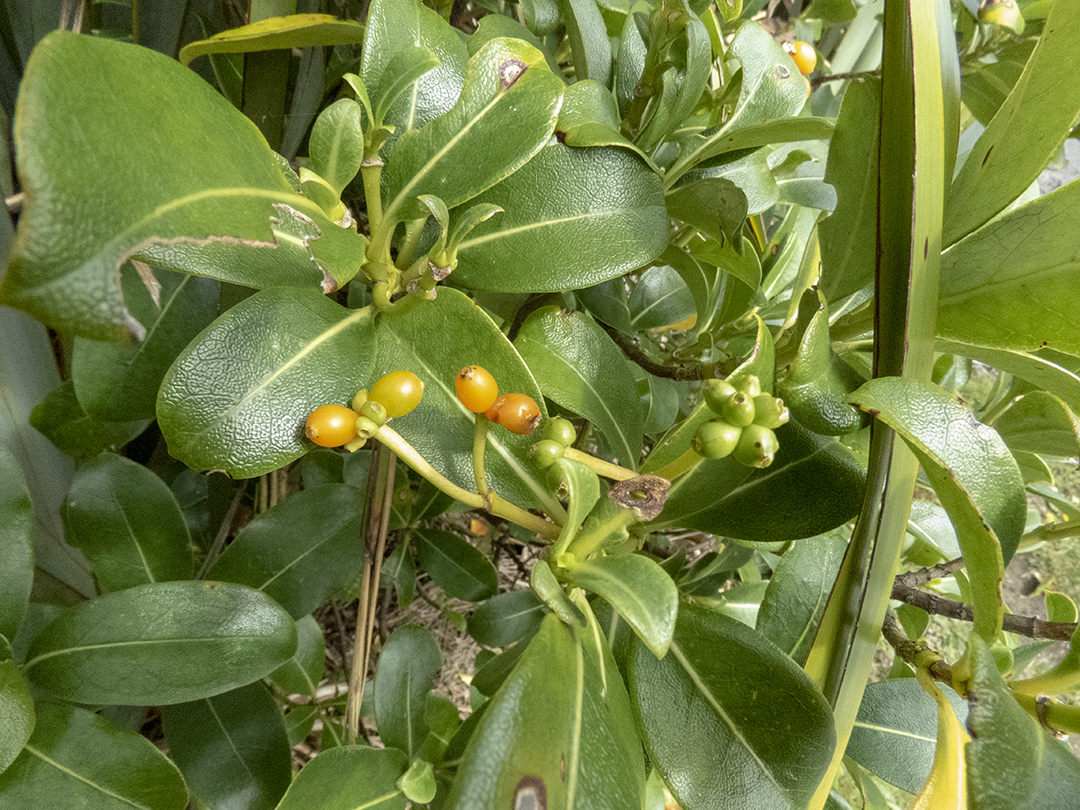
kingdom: Plantae
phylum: Tracheophyta
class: Magnoliopsida
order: Gentianales
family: Rubiaceae
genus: Coprosma
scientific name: Coprosma lucida
